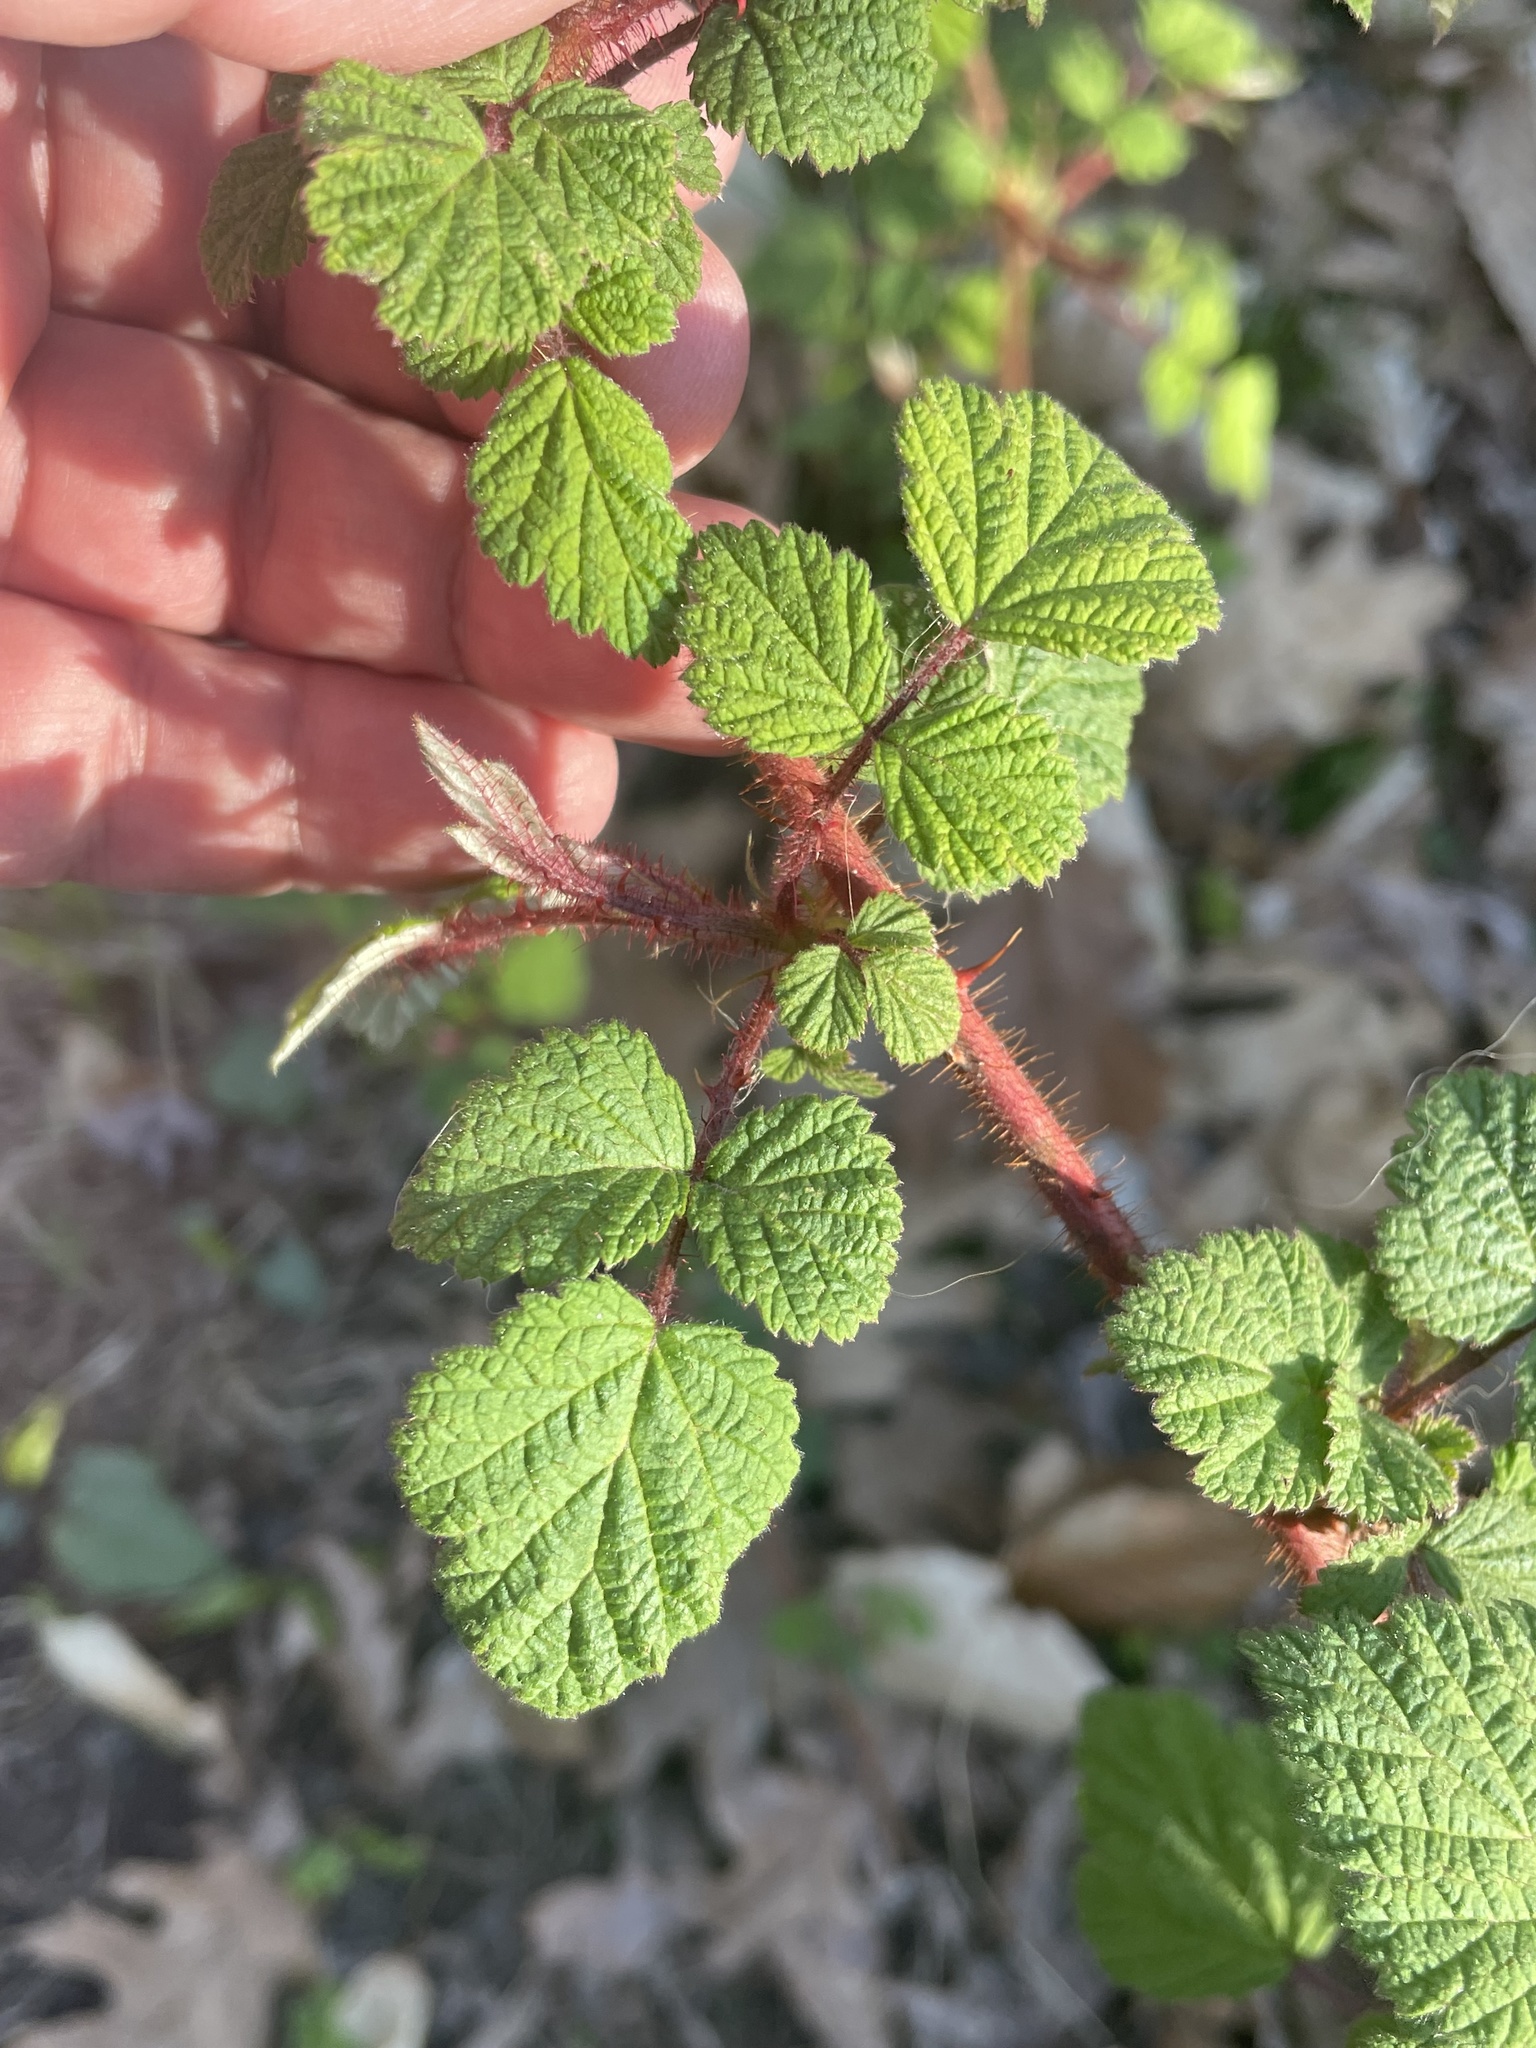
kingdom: Plantae
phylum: Tracheophyta
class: Magnoliopsida
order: Rosales
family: Rosaceae
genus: Rubus
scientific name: Rubus phoenicolasius
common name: Japanese wineberry
